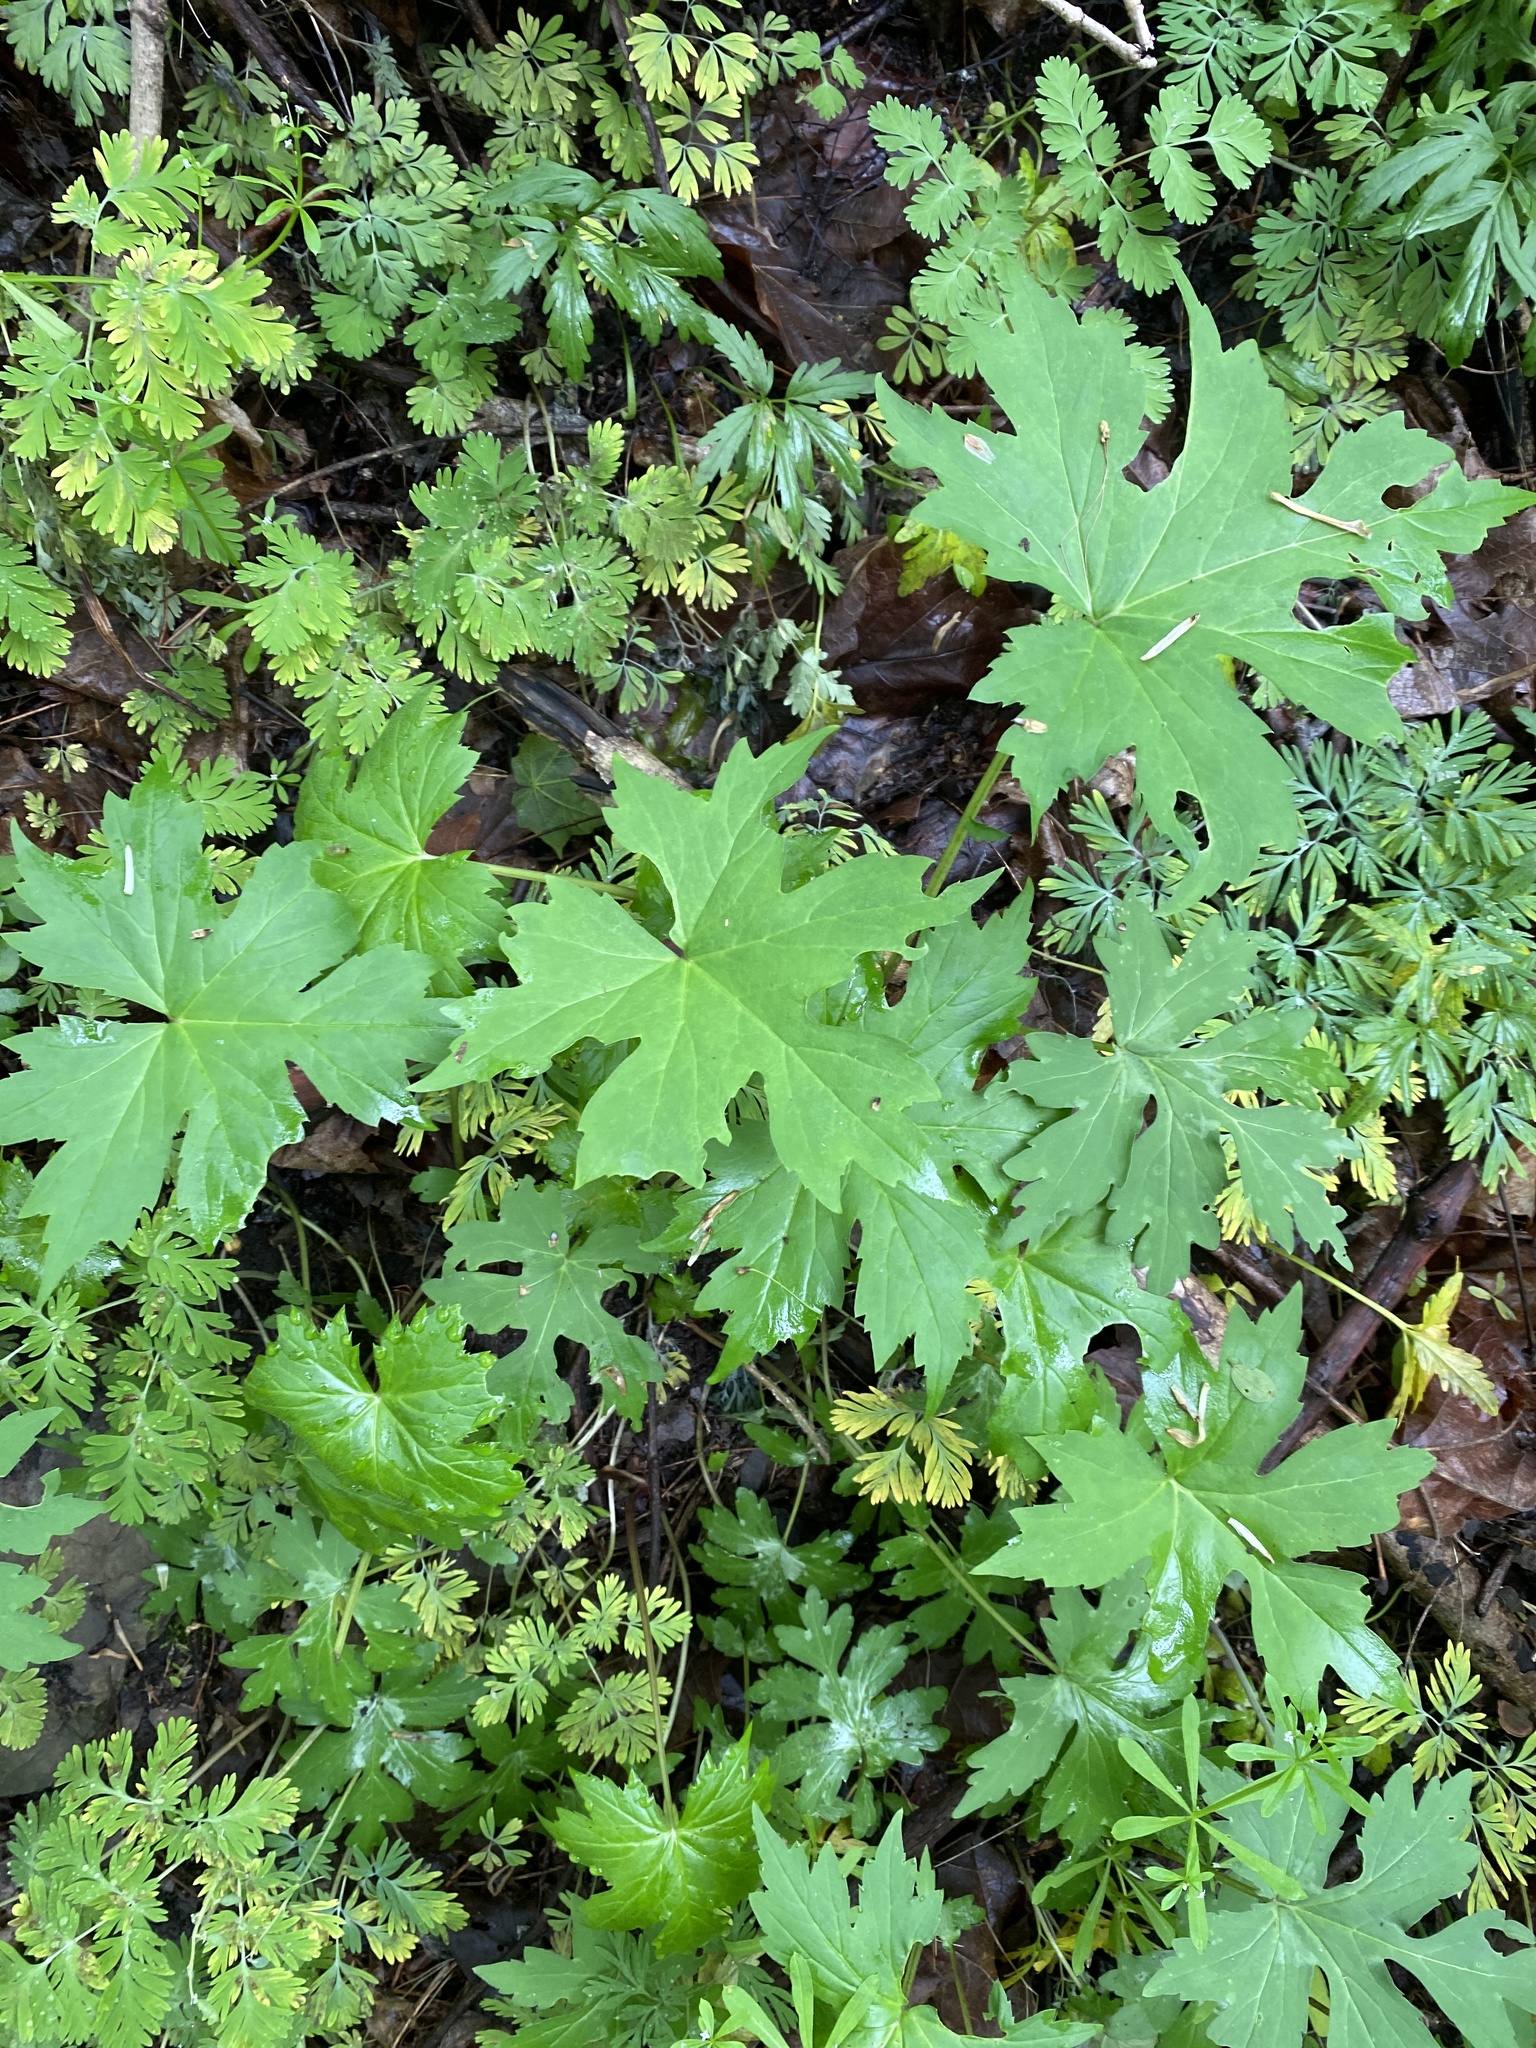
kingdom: Plantae
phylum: Tracheophyta
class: Magnoliopsida
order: Boraginales
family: Hydrophyllaceae
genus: Hydrophyllum
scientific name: Hydrophyllum canadense
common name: Canada waterleaf
